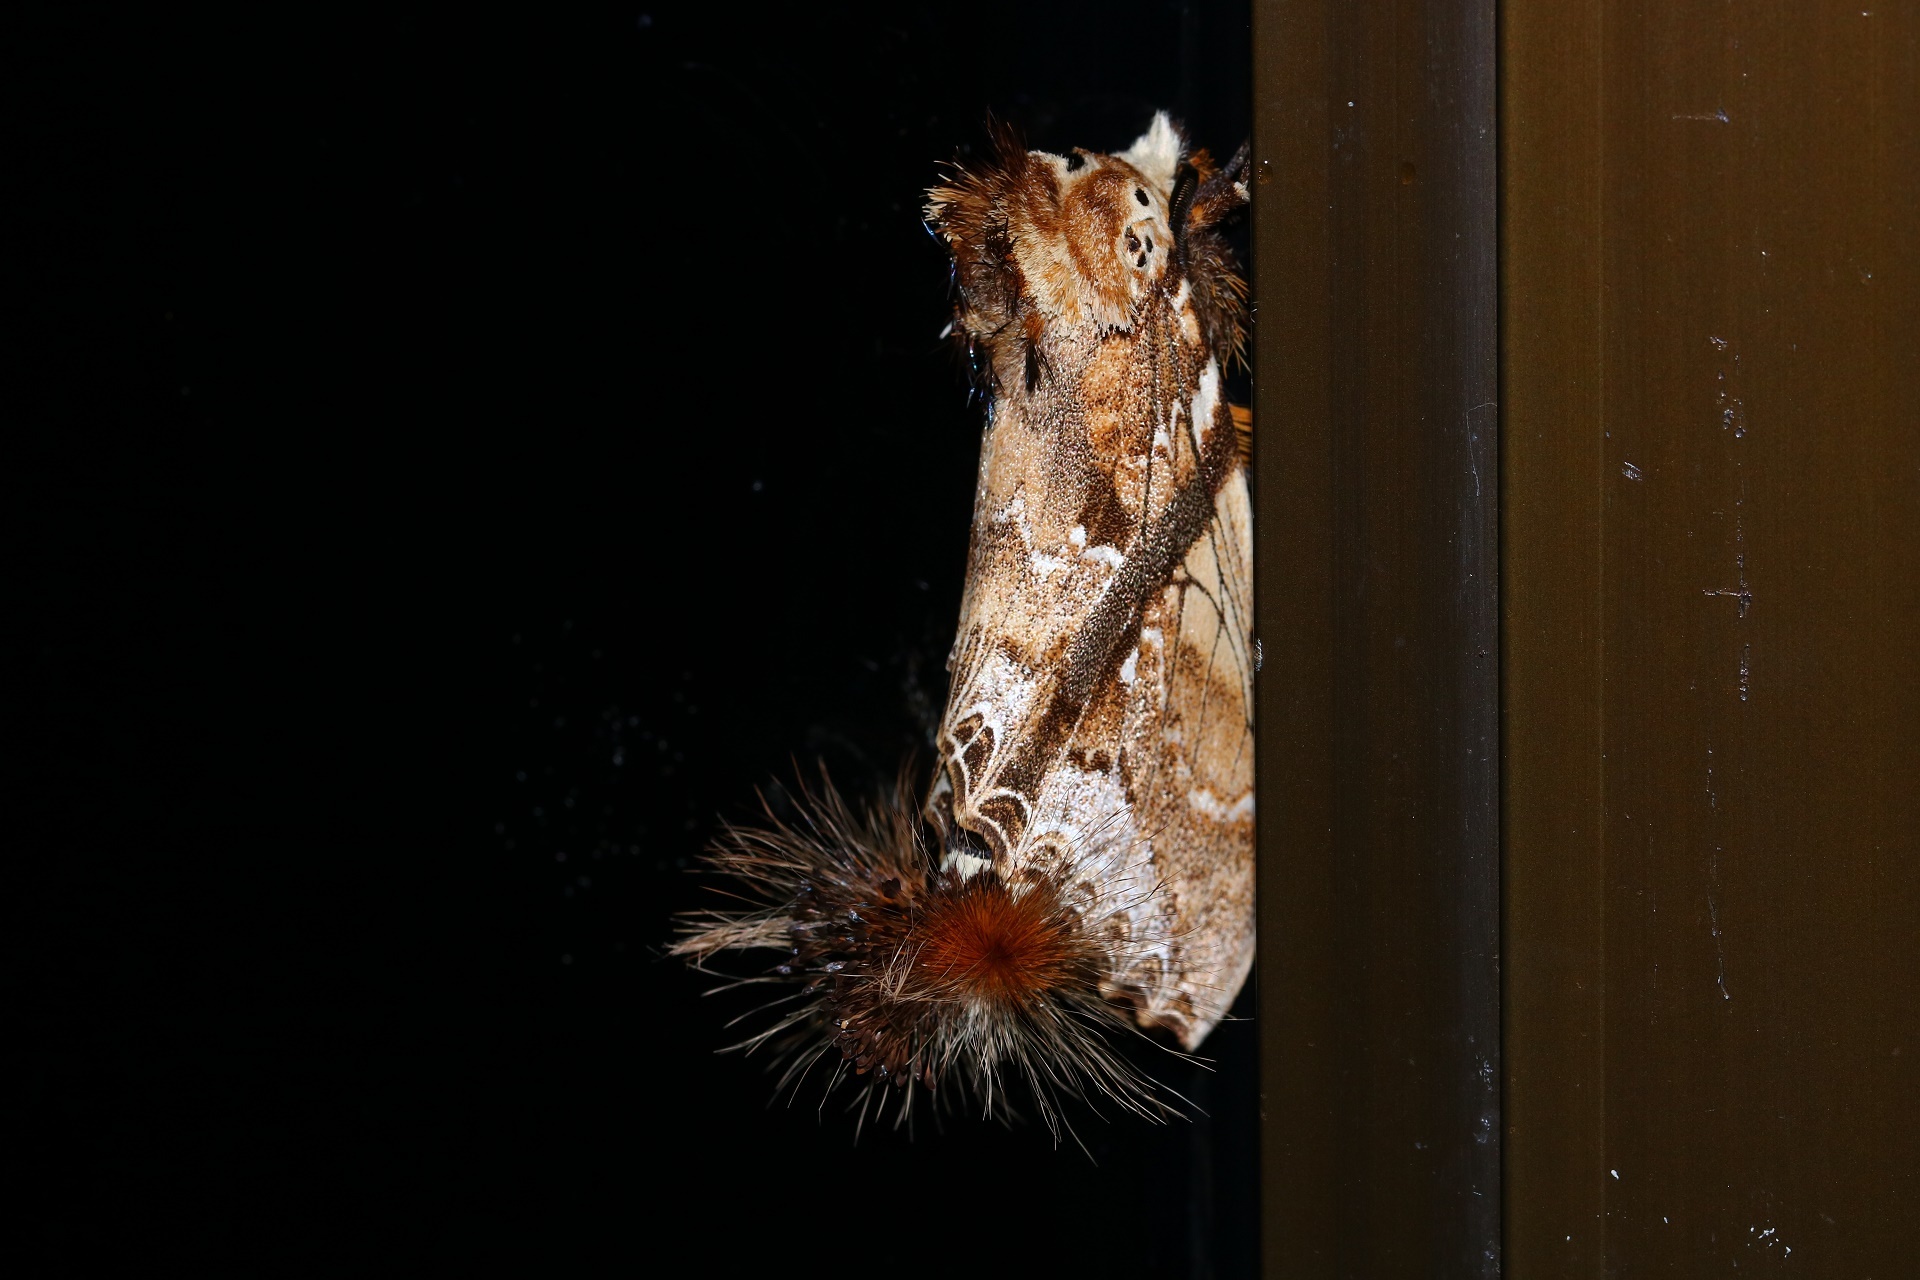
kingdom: Animalia
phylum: Arthropoda
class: Insecta
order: Lepidoptera
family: Notodontidae
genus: Dudusa
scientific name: Dudusa vethi
